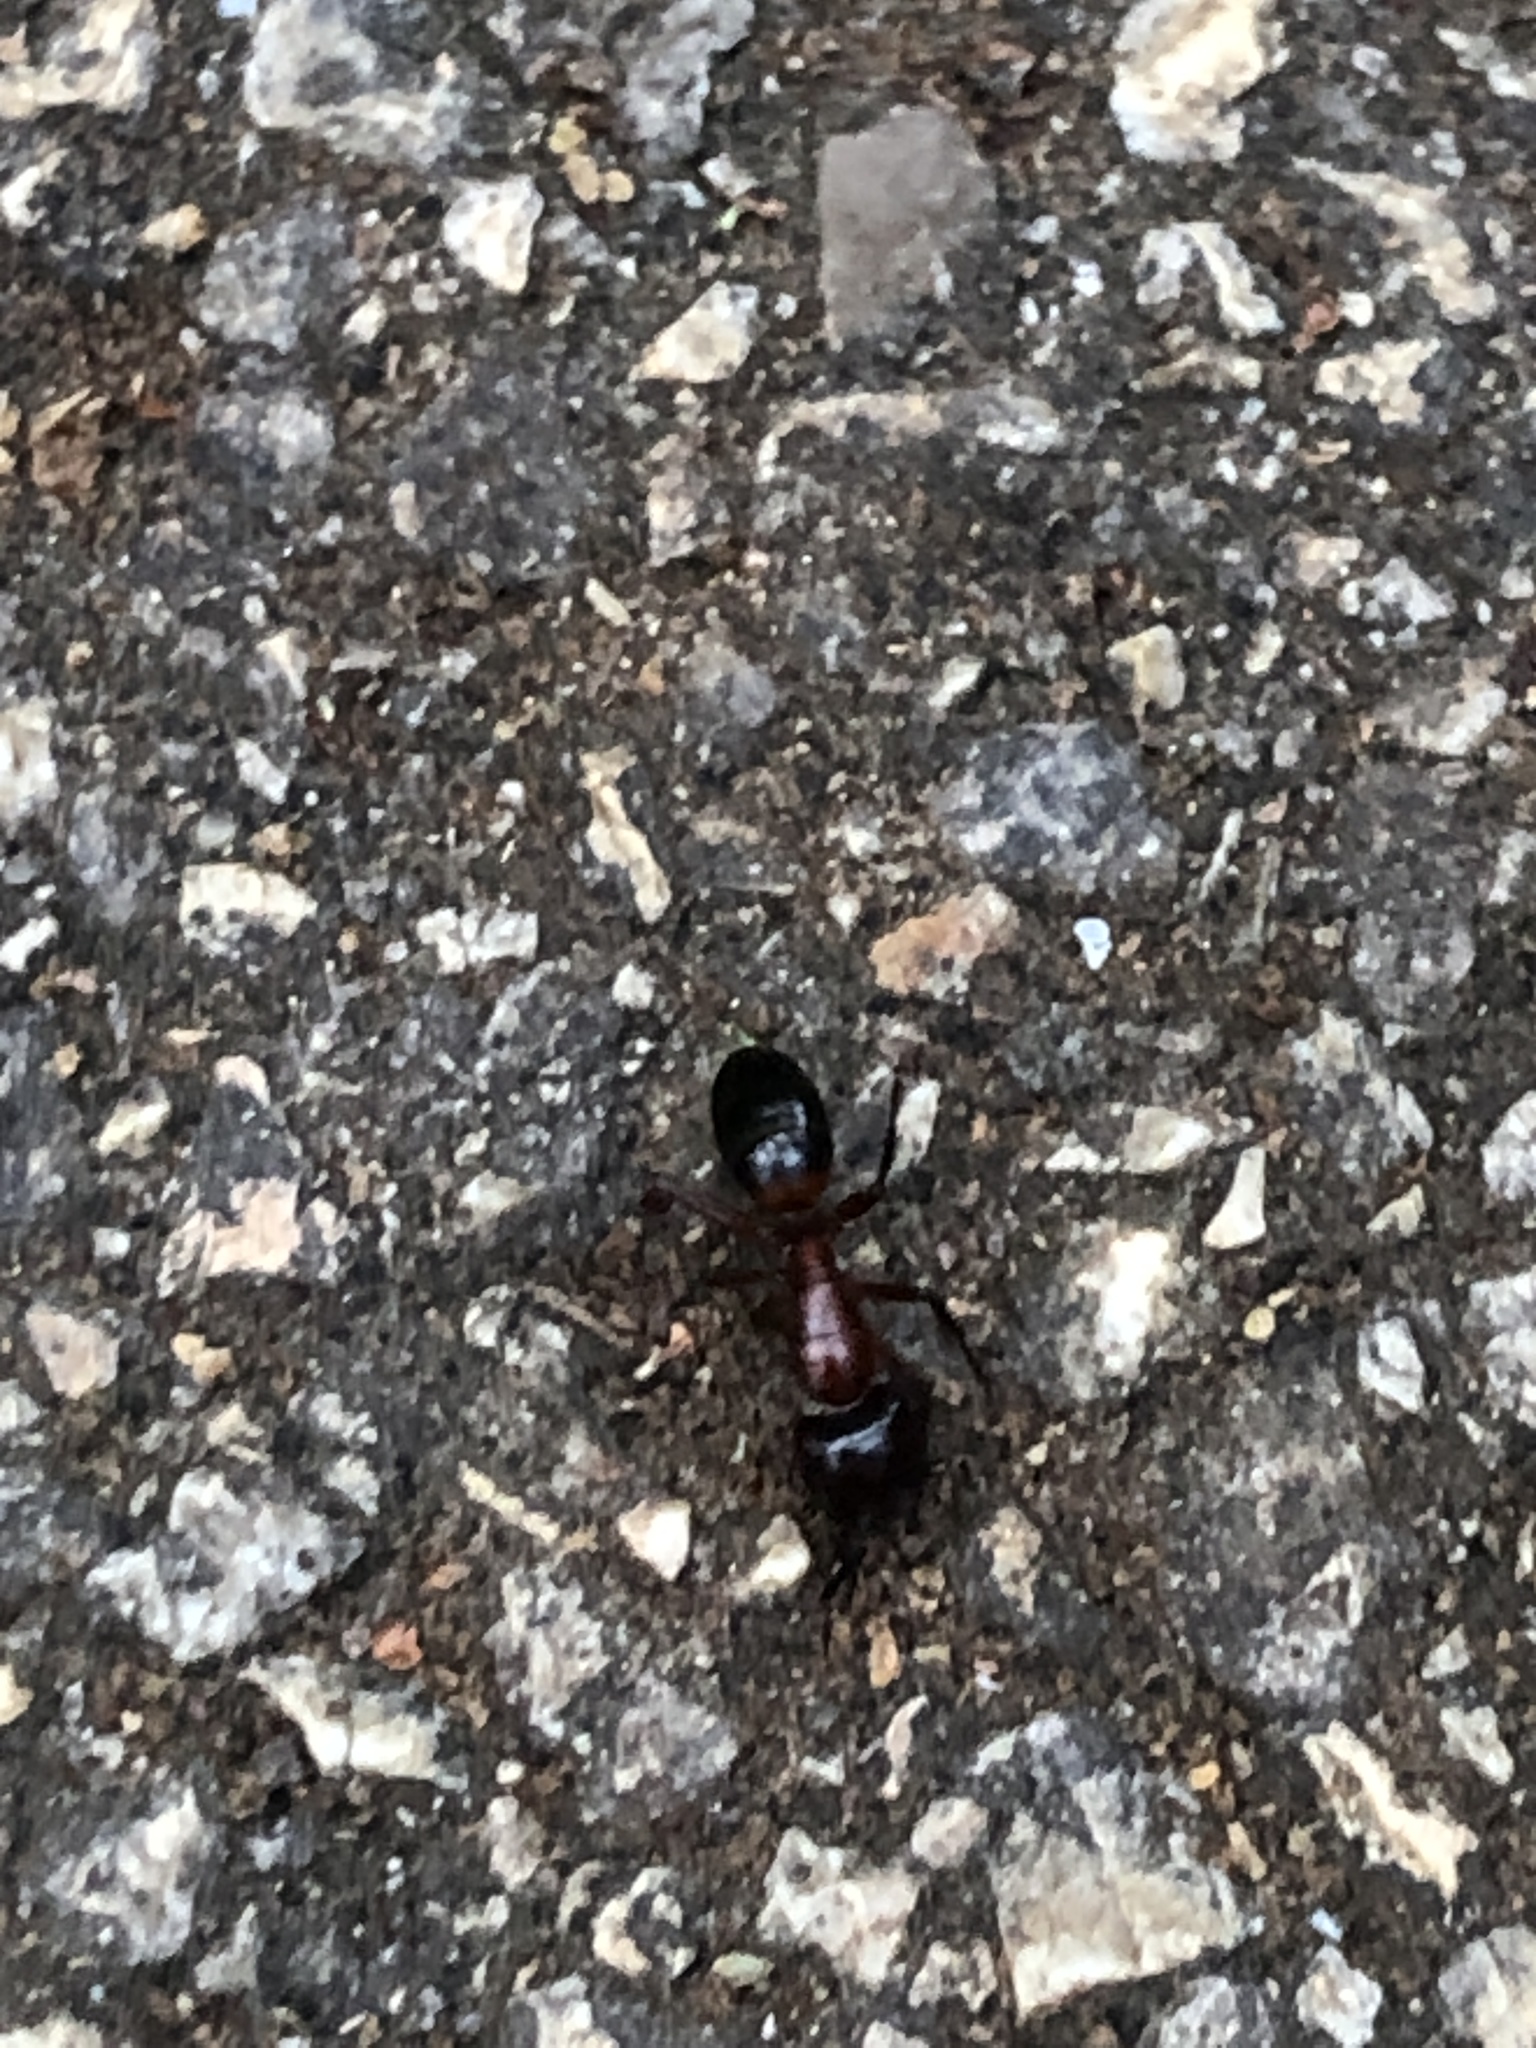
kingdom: Animalia
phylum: Arthropoda
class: Insecta
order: Hymenoptera
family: Formicidae
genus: Camponotus
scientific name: Camponotus texanus
